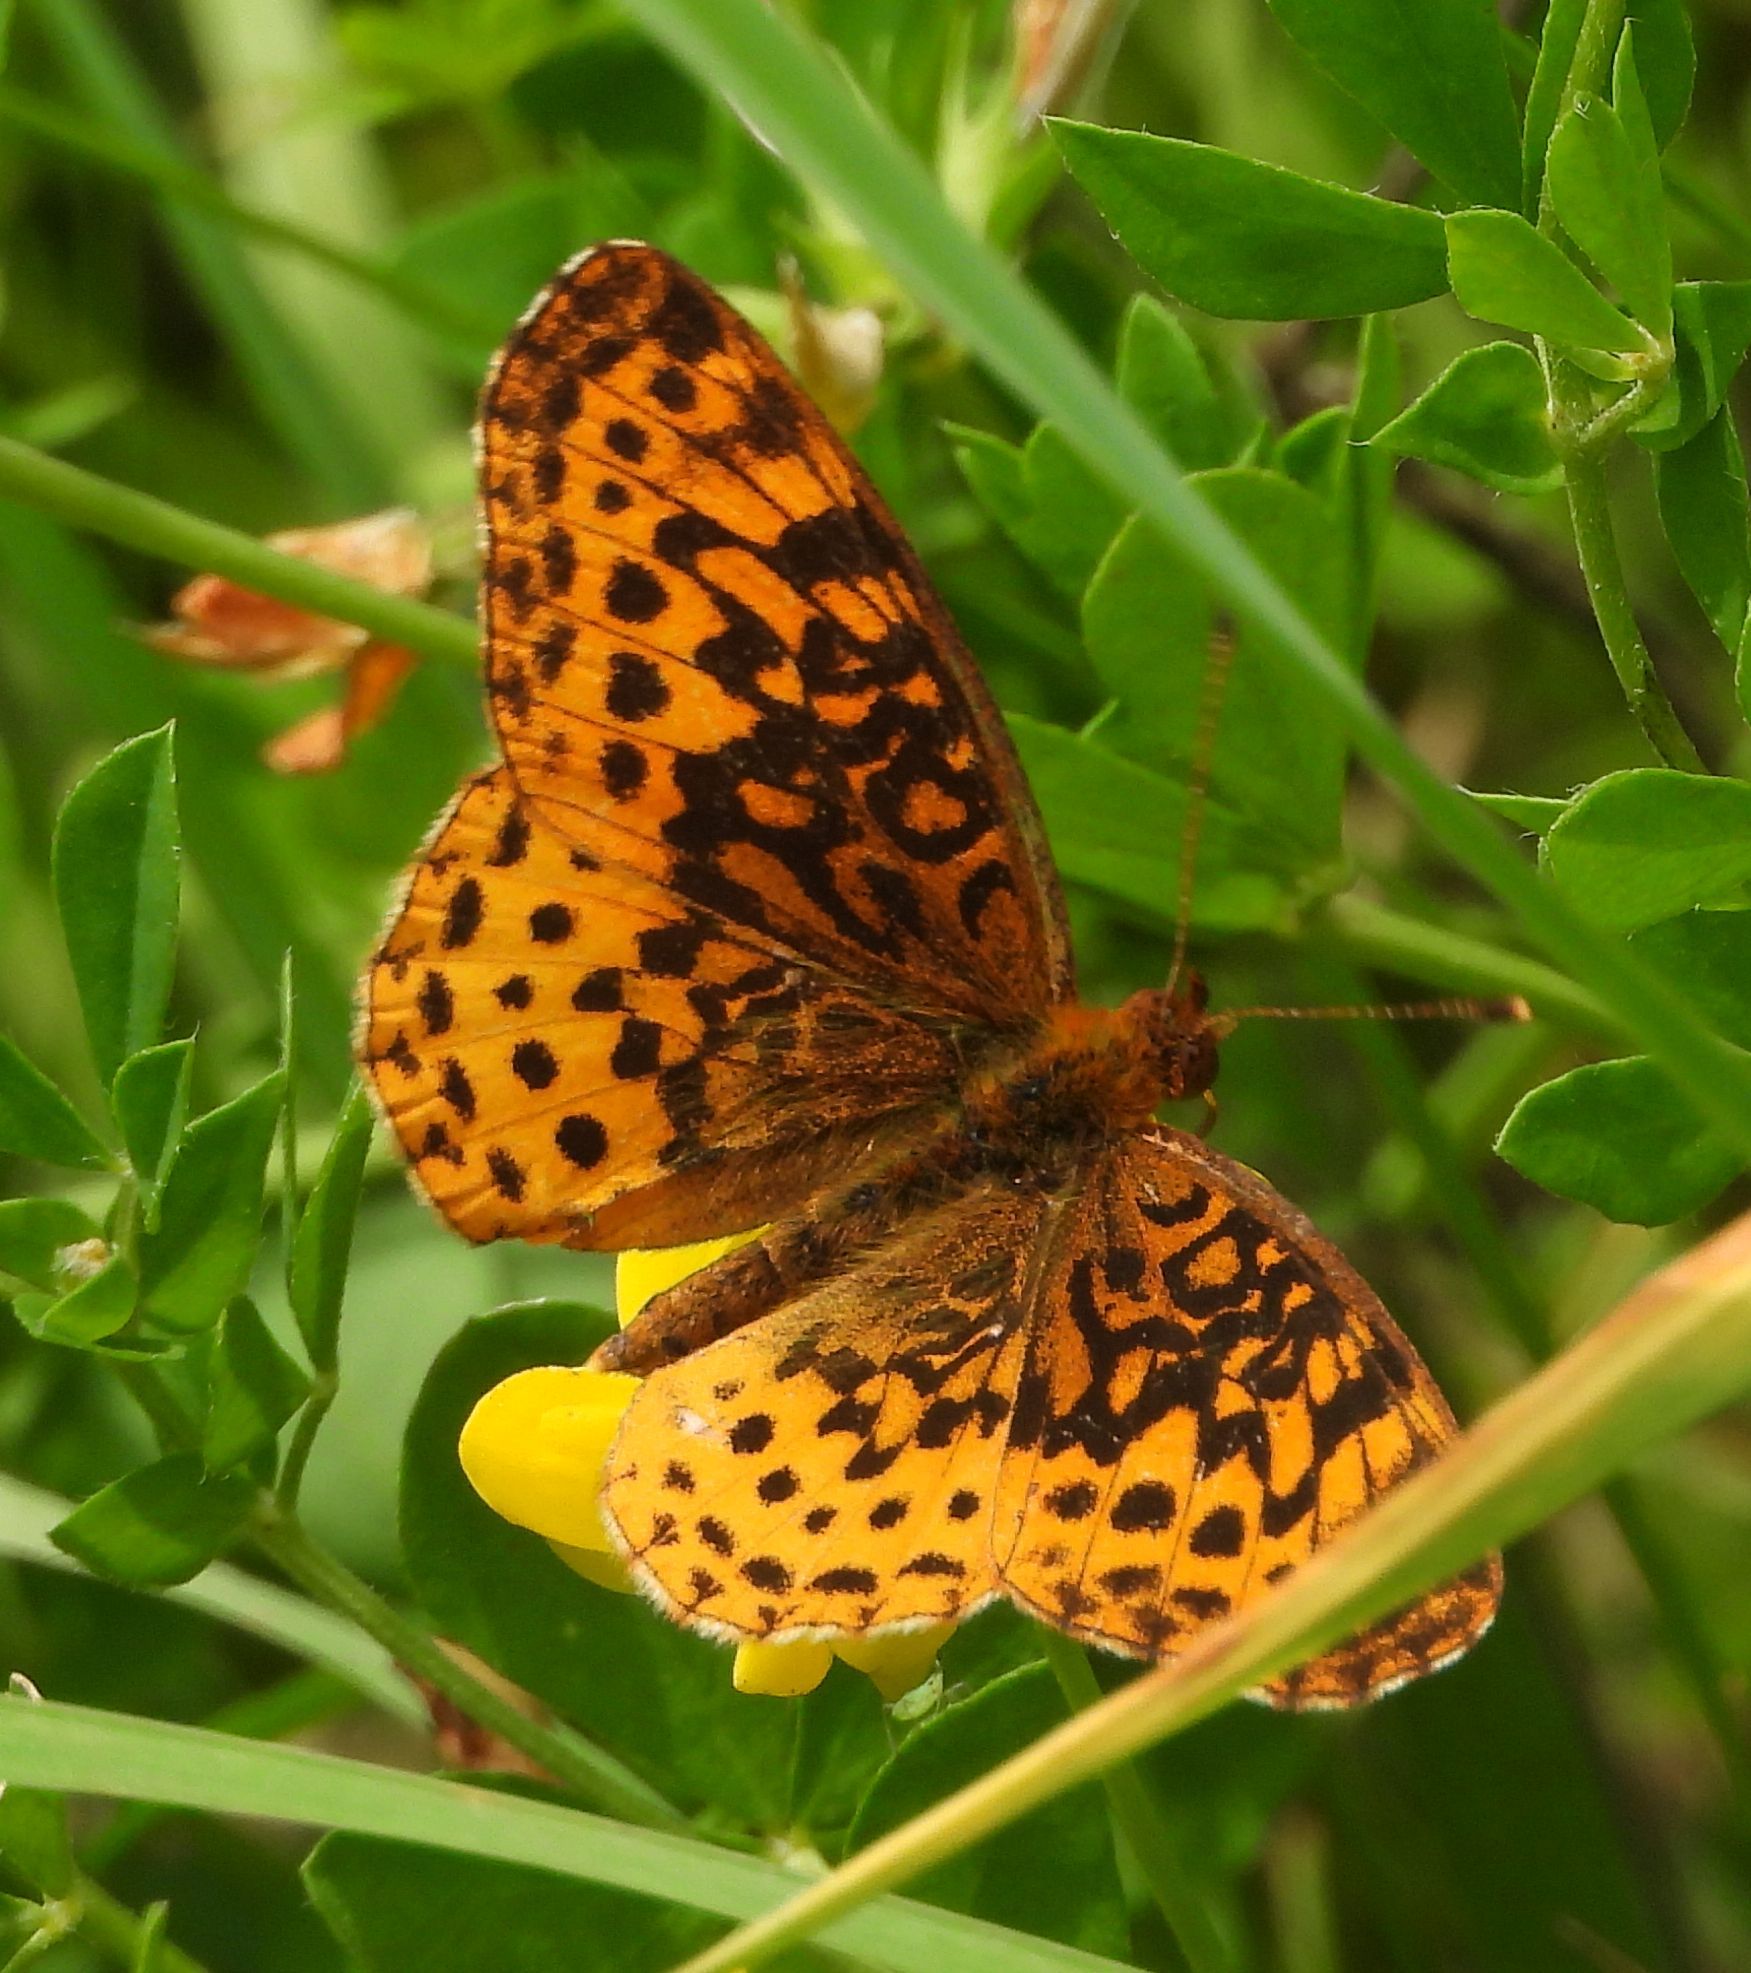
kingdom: Animalia
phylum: Arthropoda
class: Insecta
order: Lepidoptera
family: Nymphalidae
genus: Clossiana
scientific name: Clossiana toddi
